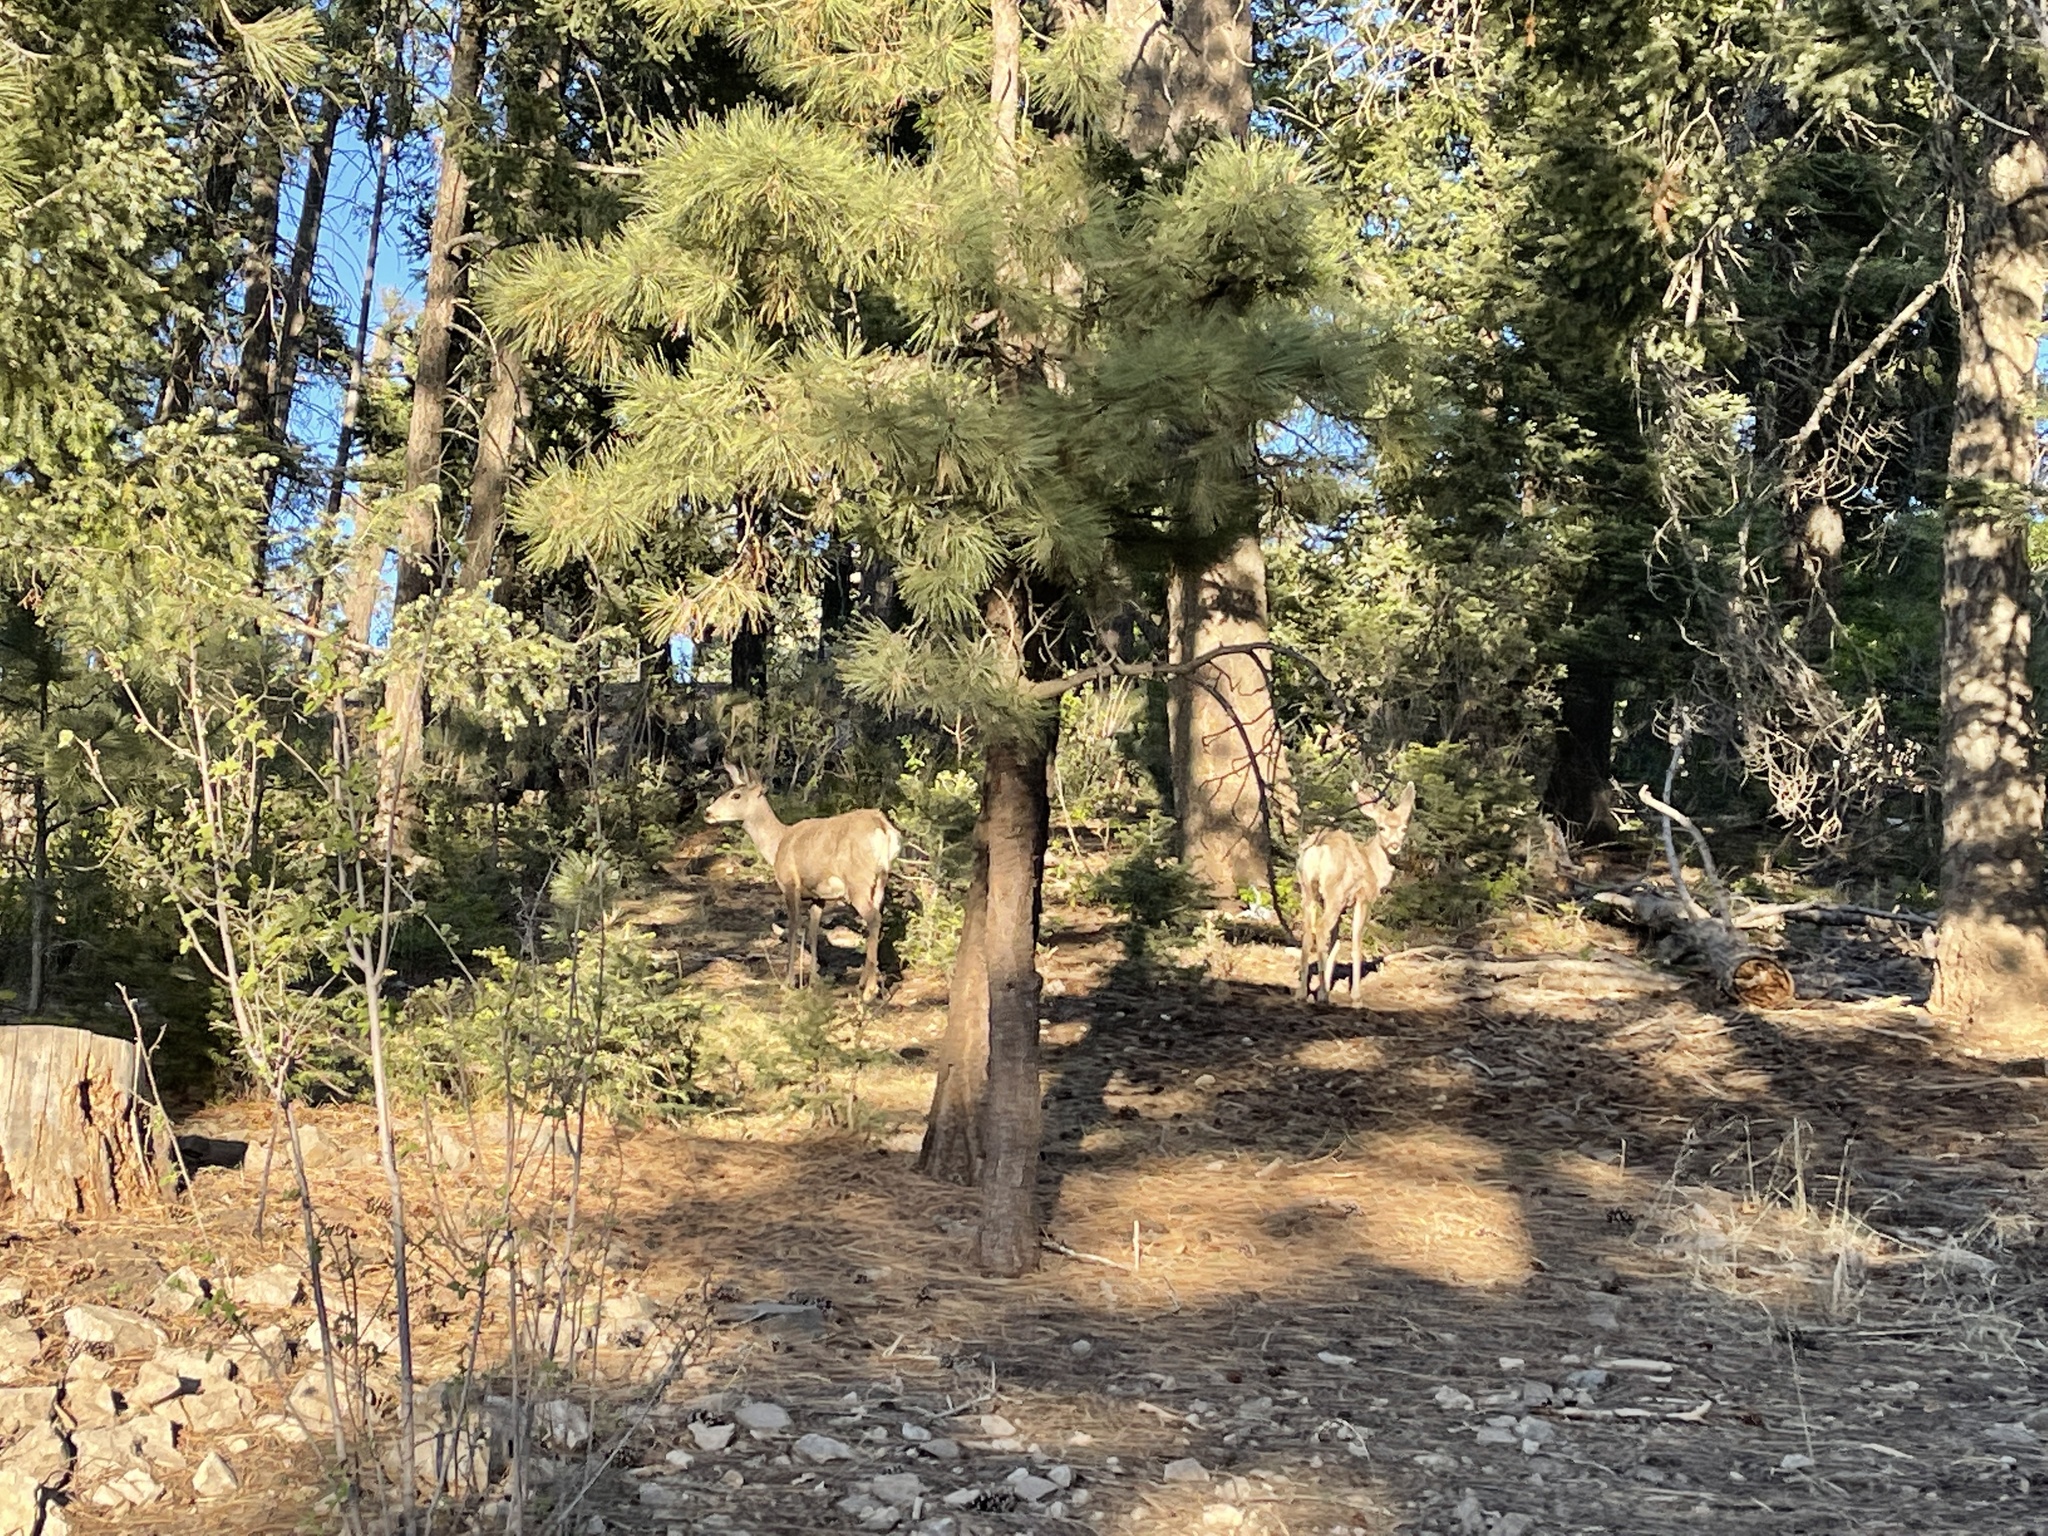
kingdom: Animalia
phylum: Chordata
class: Mammalia
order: Artiodactyla
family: Cervidae
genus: Odocoileus
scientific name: Odocoileus hemionus
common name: Mule deer
